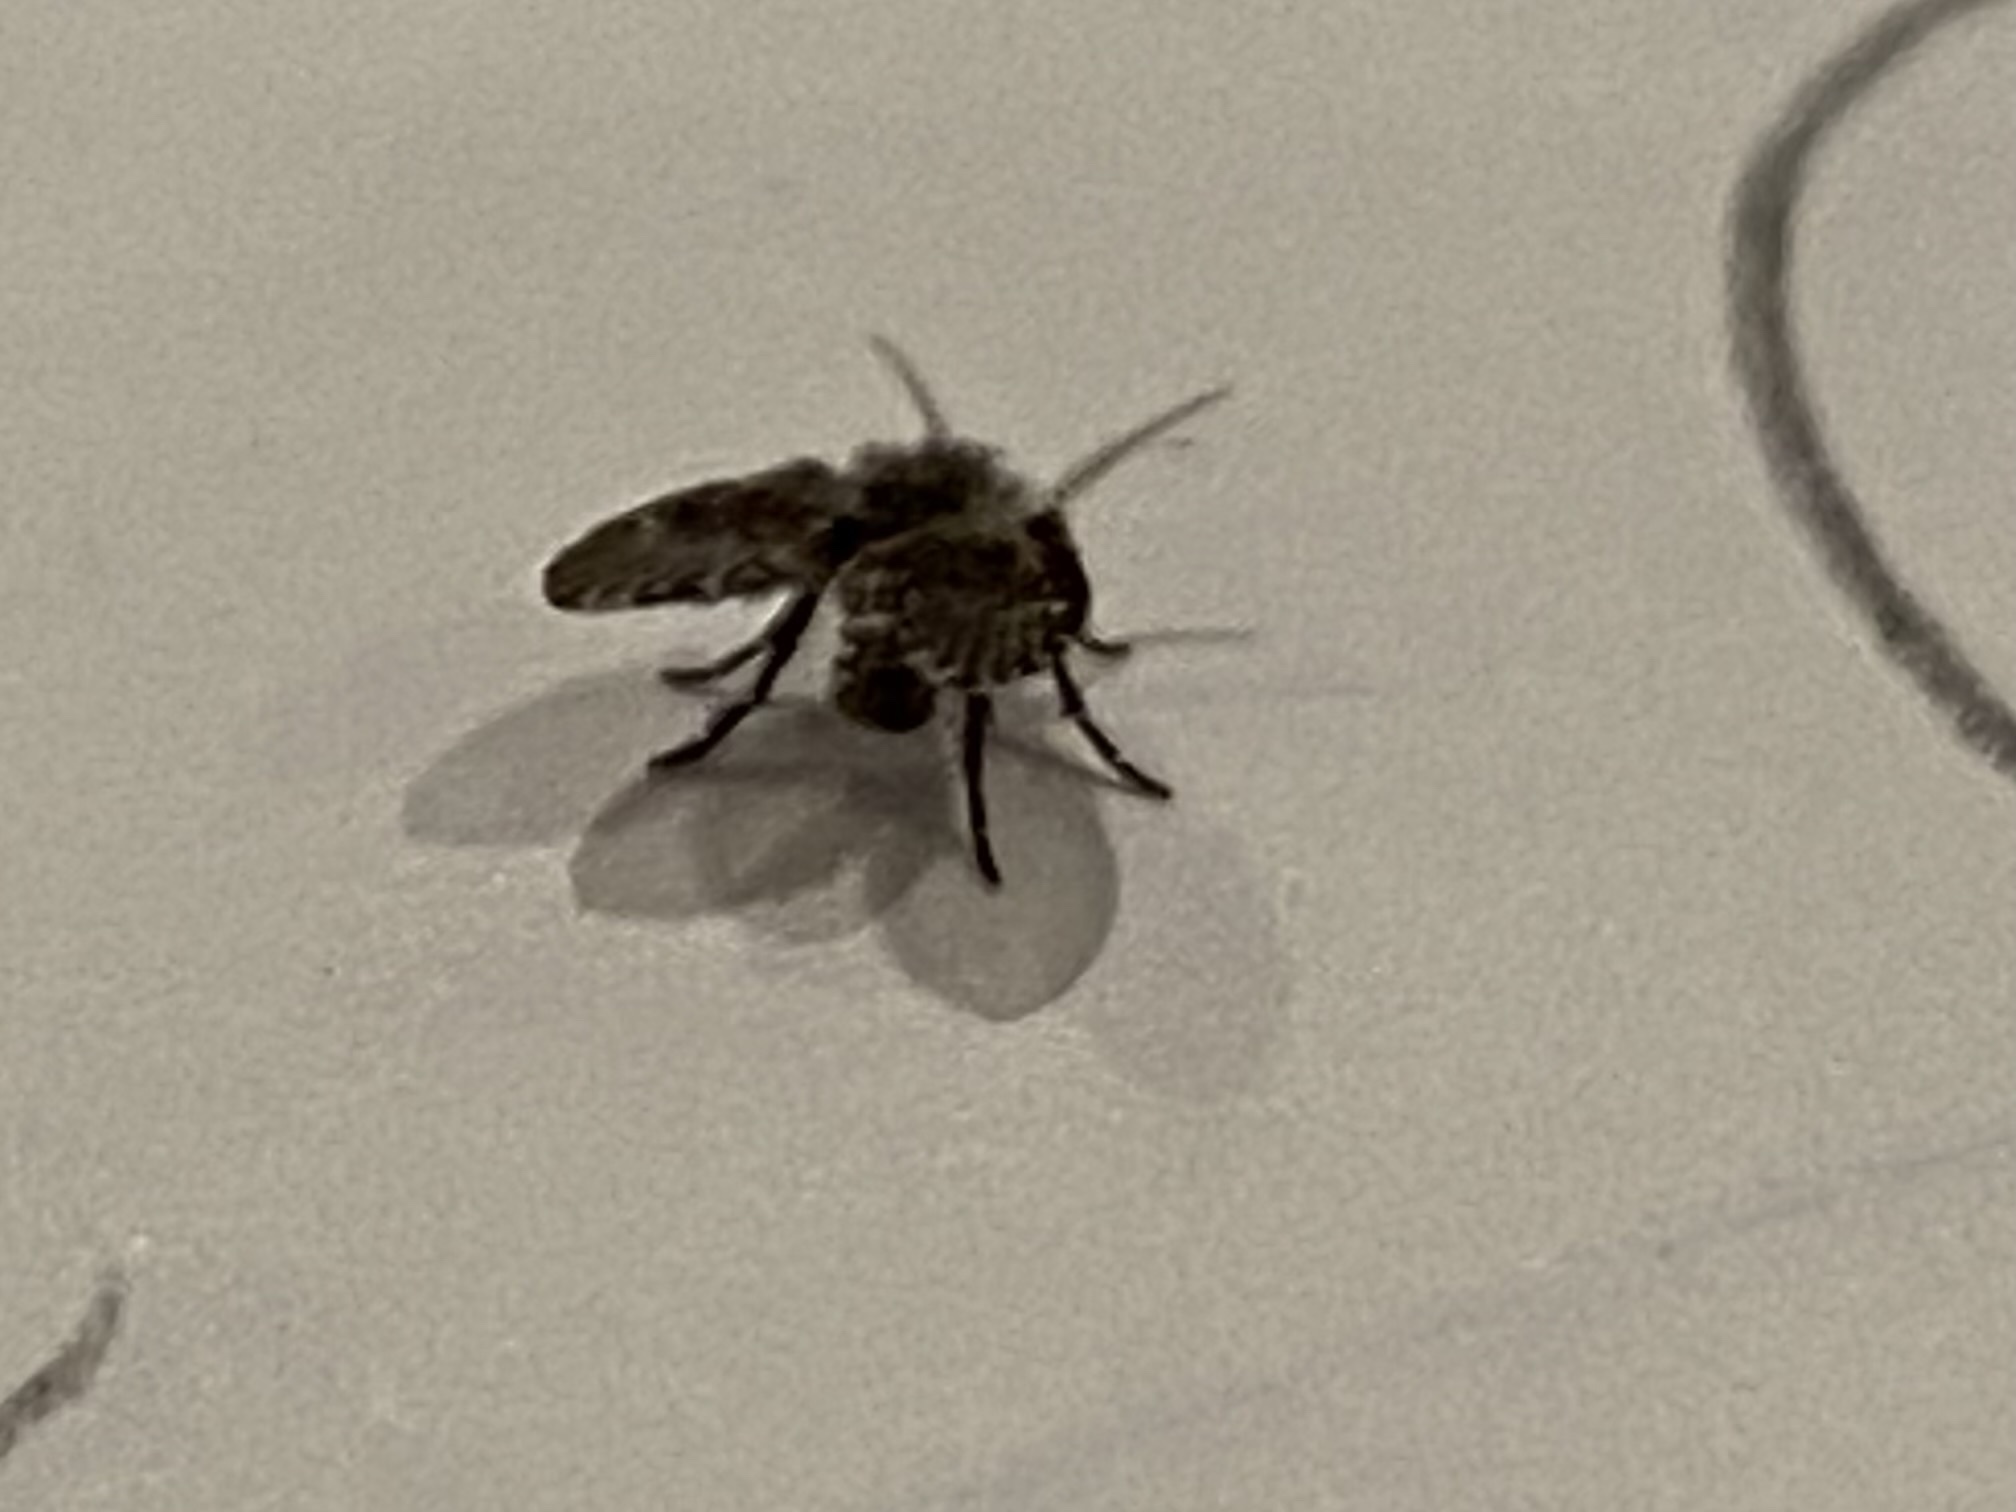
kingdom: Animalia
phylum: Arthropoda
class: Insecta
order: Diptera
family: Psychodidae
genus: Clogmia
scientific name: Clogmia albipunctatus
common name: White-spotted moth fly
